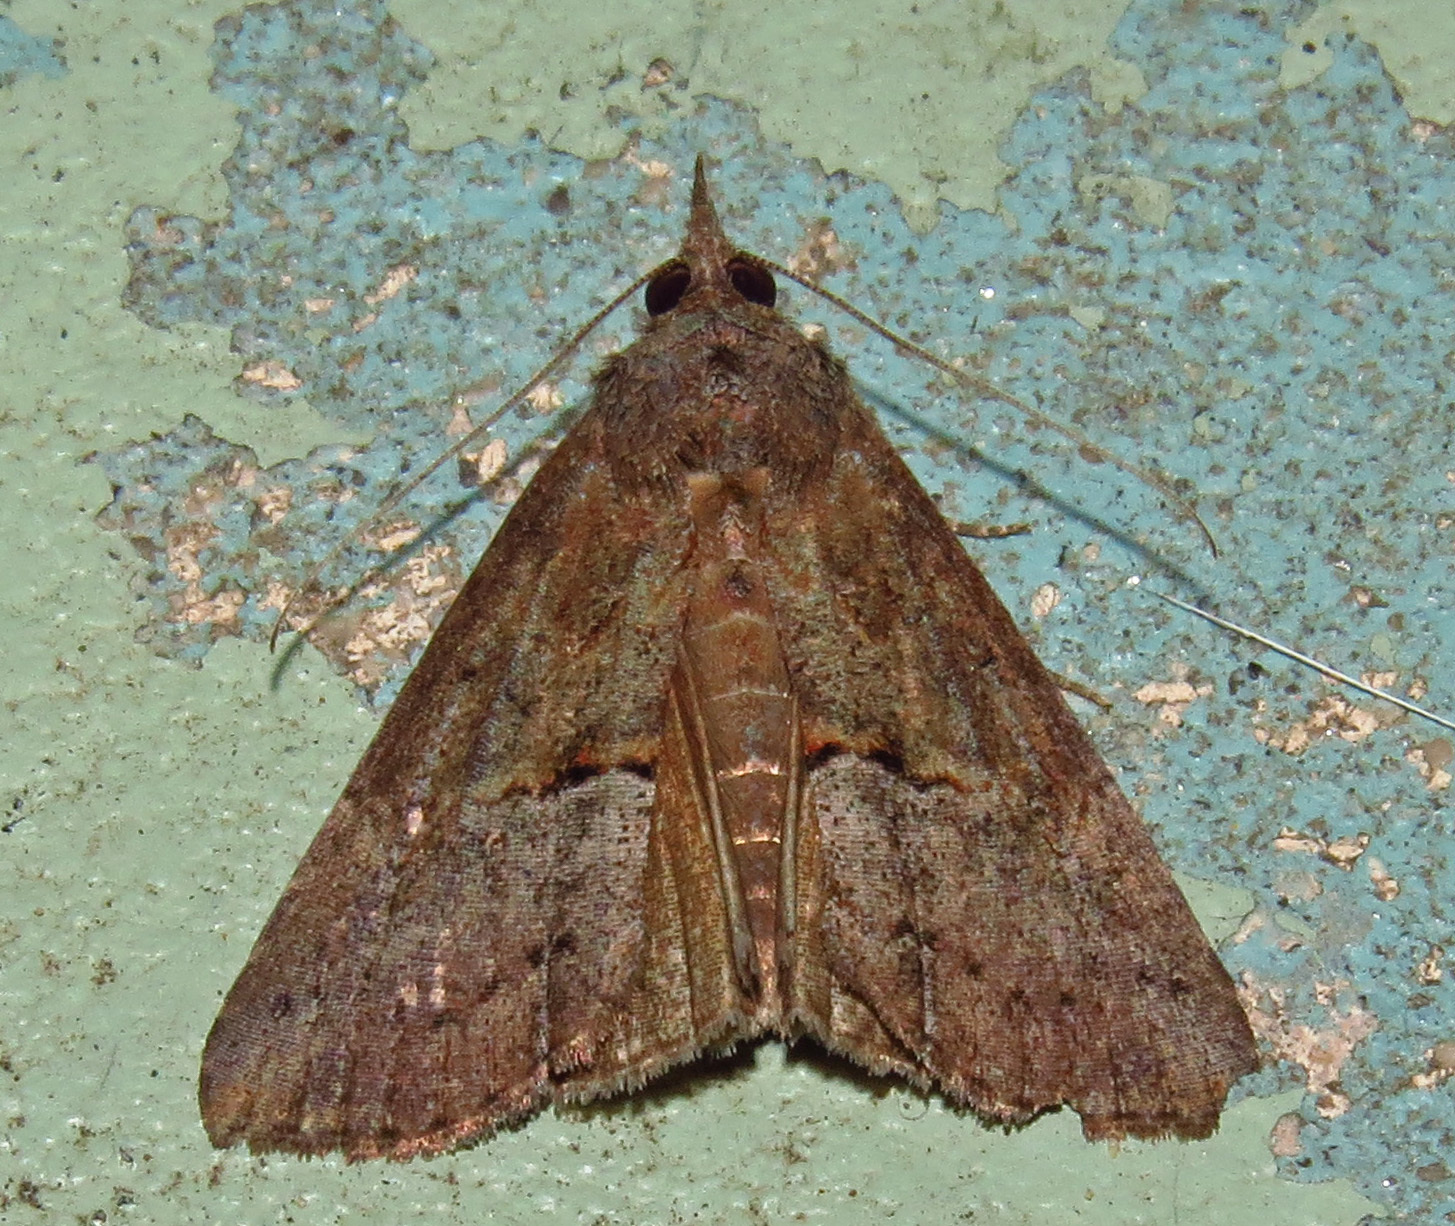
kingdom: Animalia
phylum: Arthropoda
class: Insecta
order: Lepidoptera
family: Erebidae
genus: Hypena
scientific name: Hypena scabra
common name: Green cloverworm
